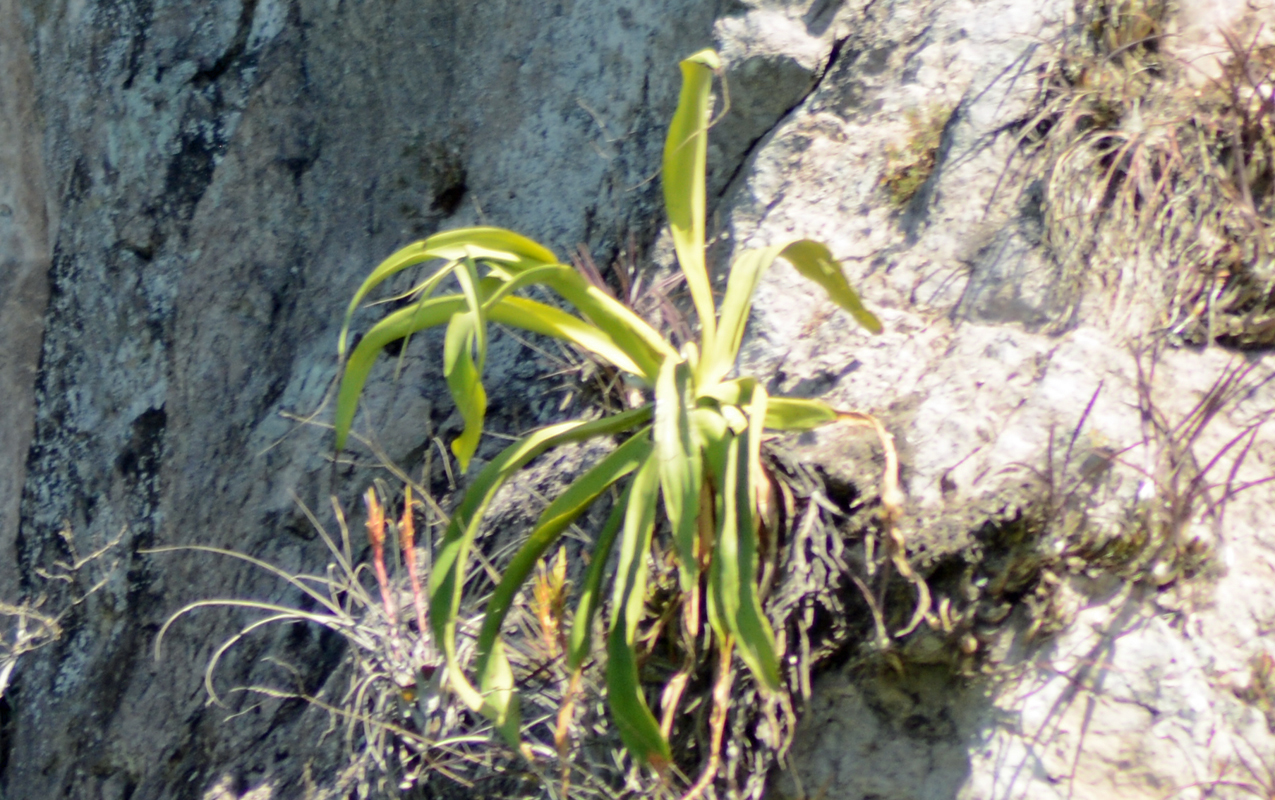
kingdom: Plantae
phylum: Tracheophyta
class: Liliopsida
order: Asparagales
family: Asparagaceae
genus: Agave
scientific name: Agave vilmoriniana
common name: Octopus plant
